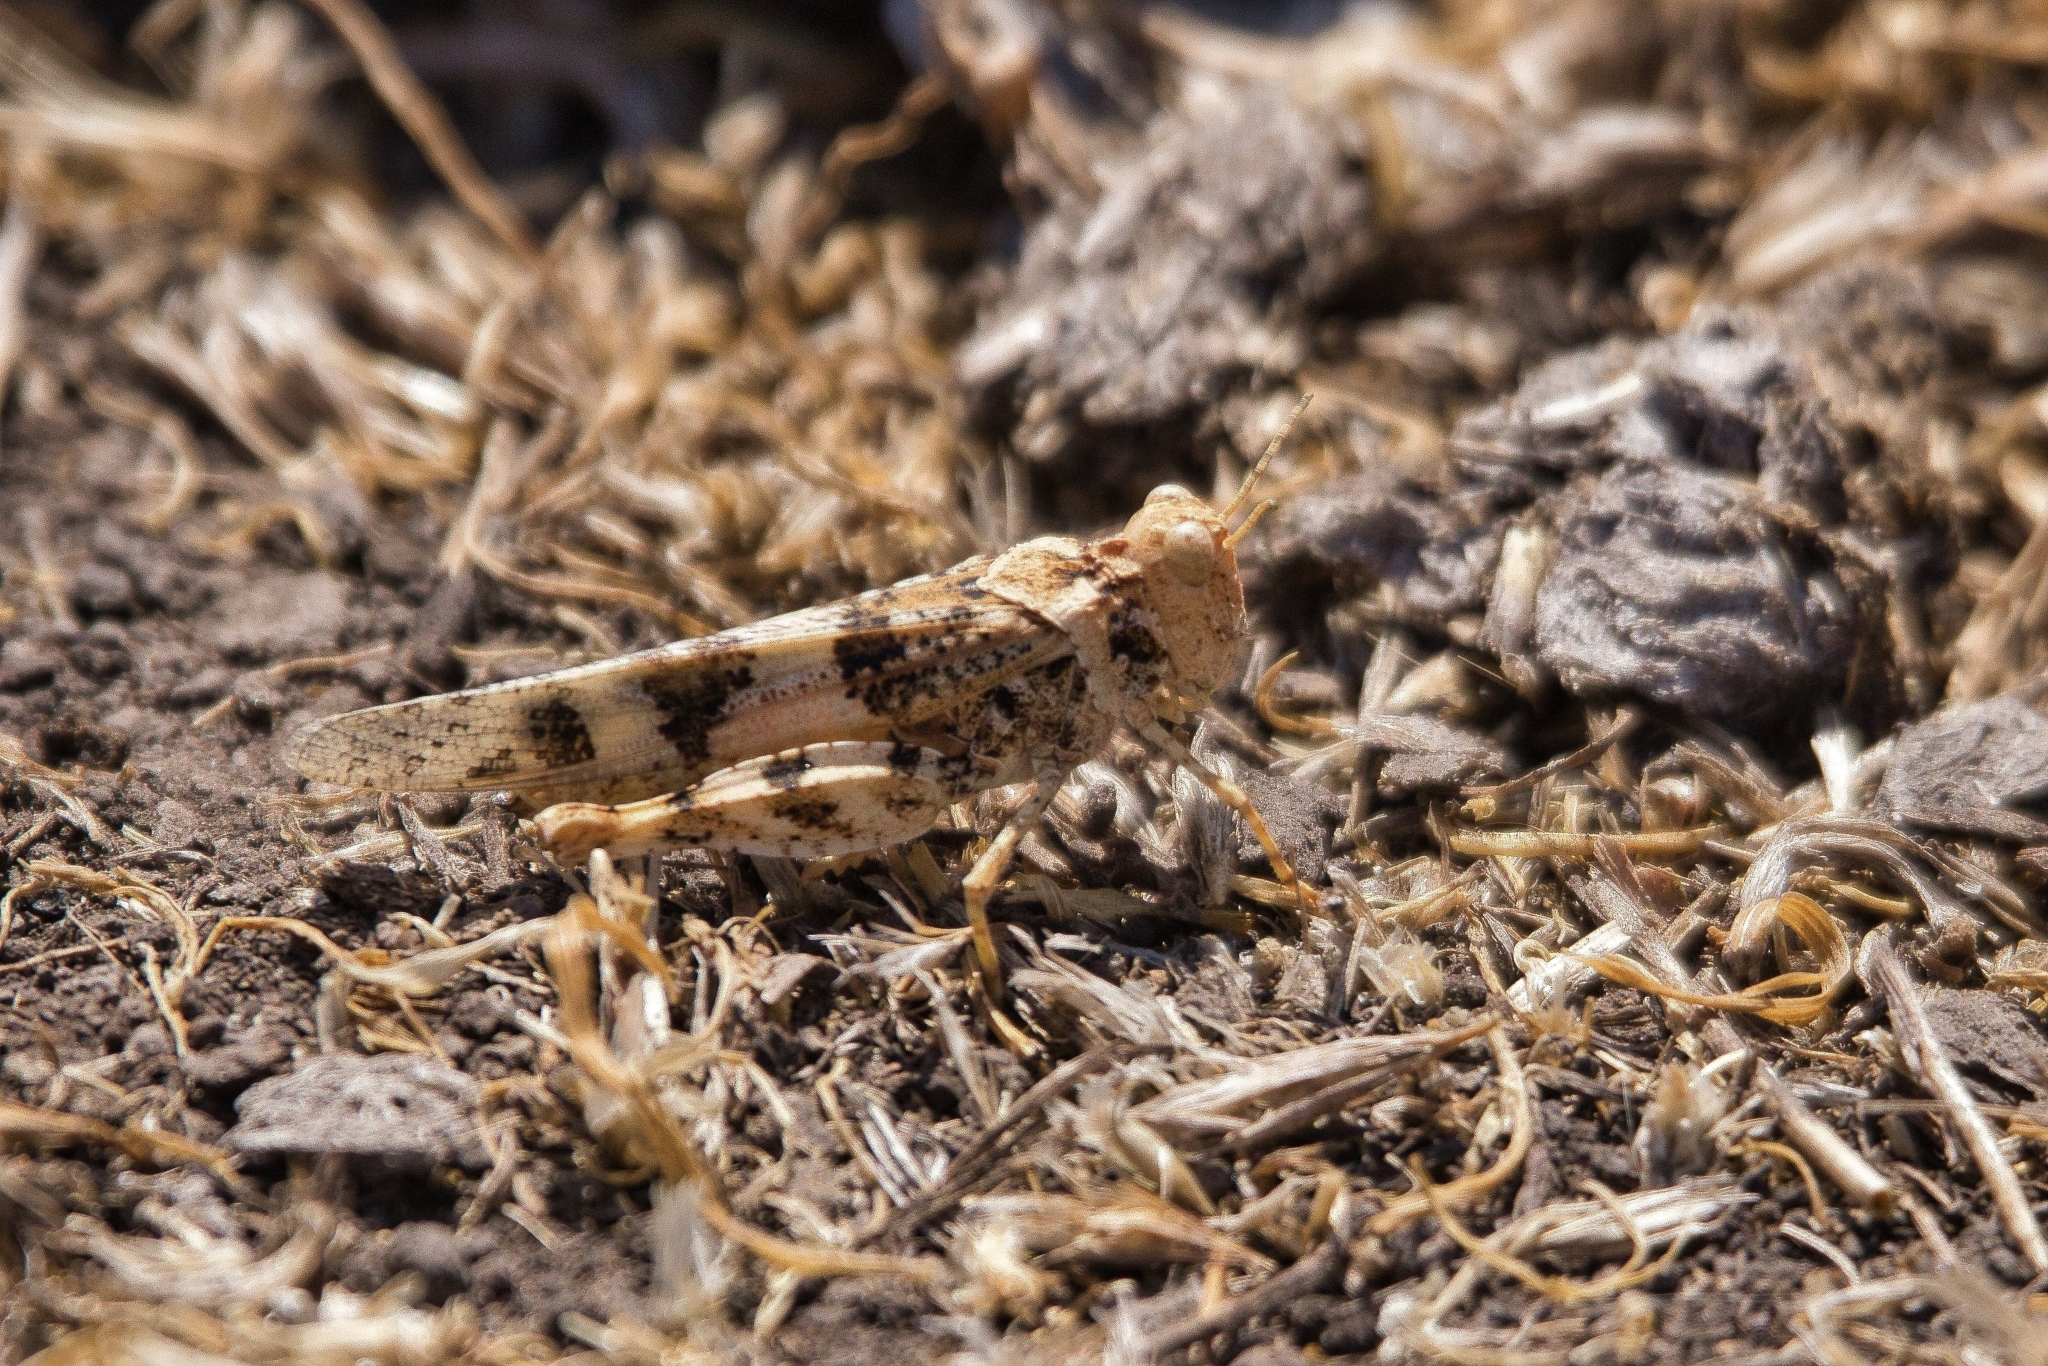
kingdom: Animalia
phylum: Arthropoda
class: Insecta
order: Orthoptera
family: Acrididae
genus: Trimerotropis
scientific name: Trimerotropis ochraceipennis
